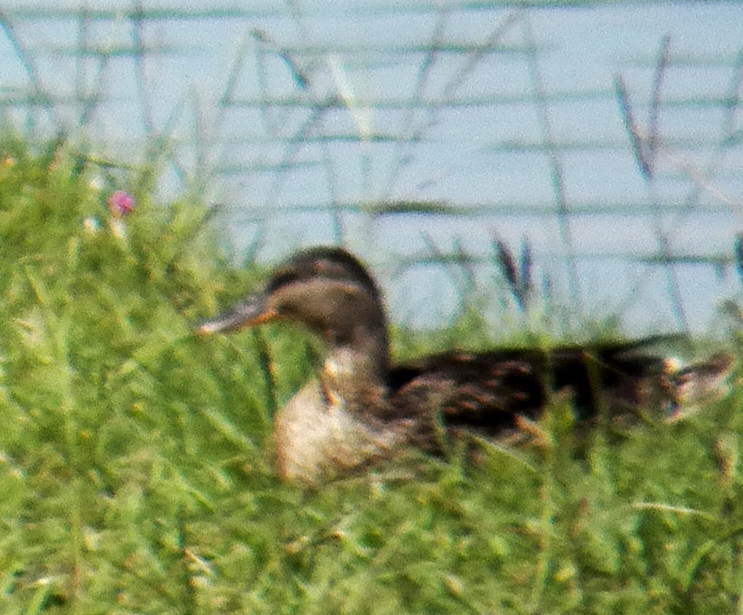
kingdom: Animalia
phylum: Chordata
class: Aves
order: Anseriformes
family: Anatidae
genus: Anas
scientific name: Anas platyrhynchos
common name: Mallard
